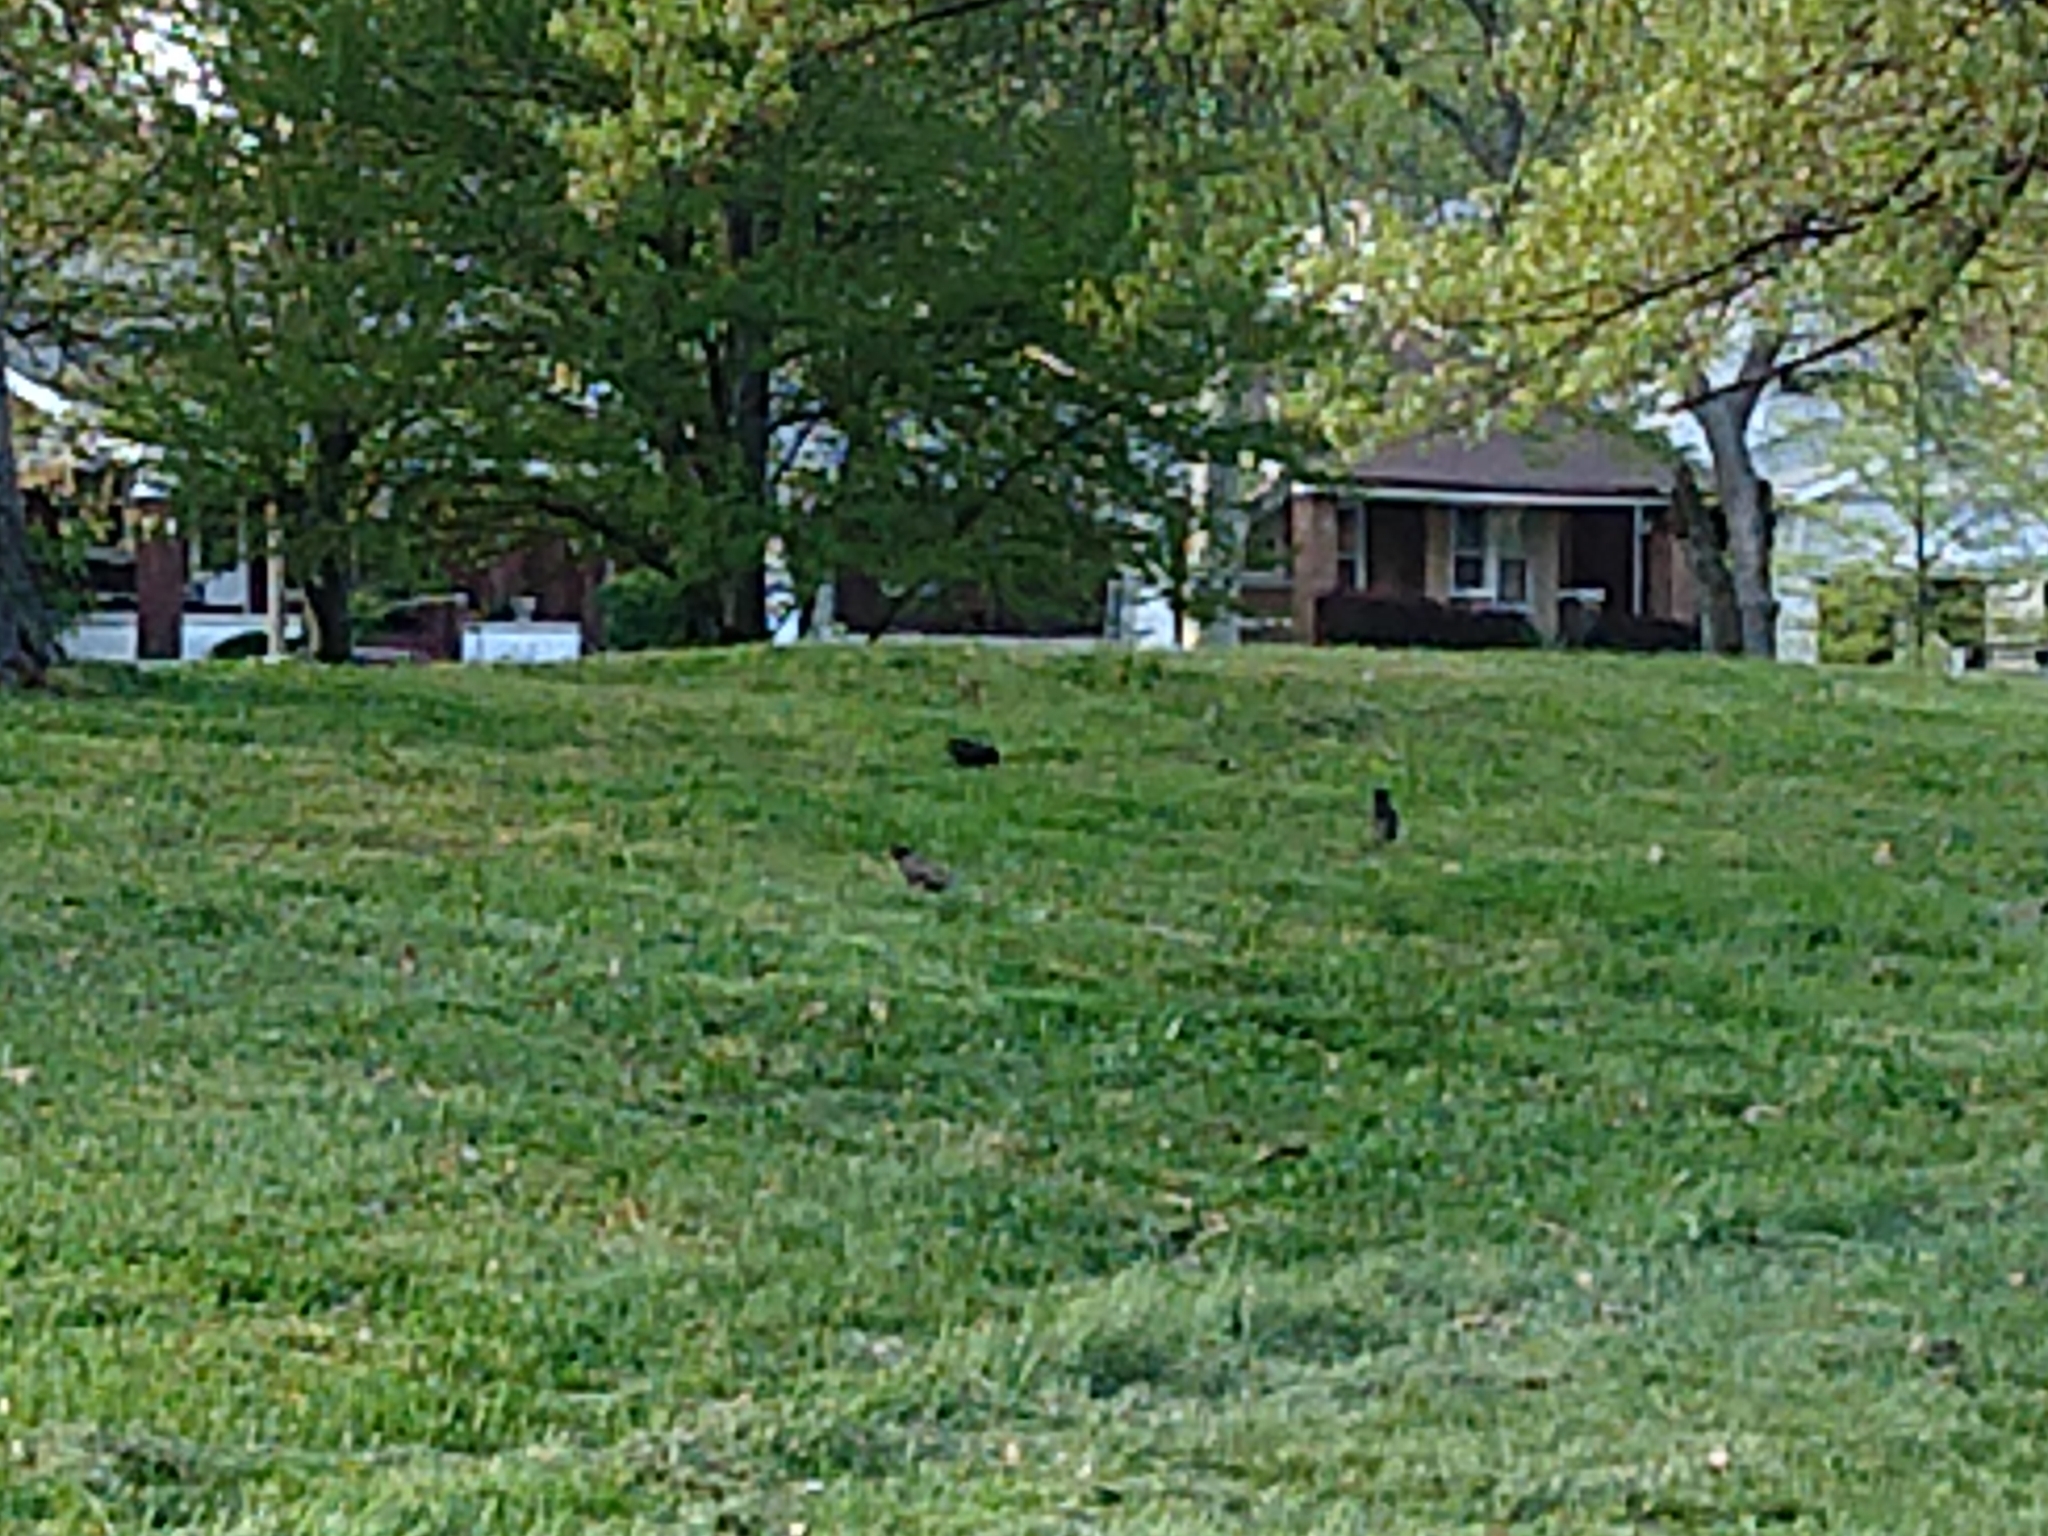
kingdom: Animalia
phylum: Chordata
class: Aves
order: Passeriformes
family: Sturnidae
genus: Sturnus
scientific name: Sturnus vulgaris
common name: Common starling
